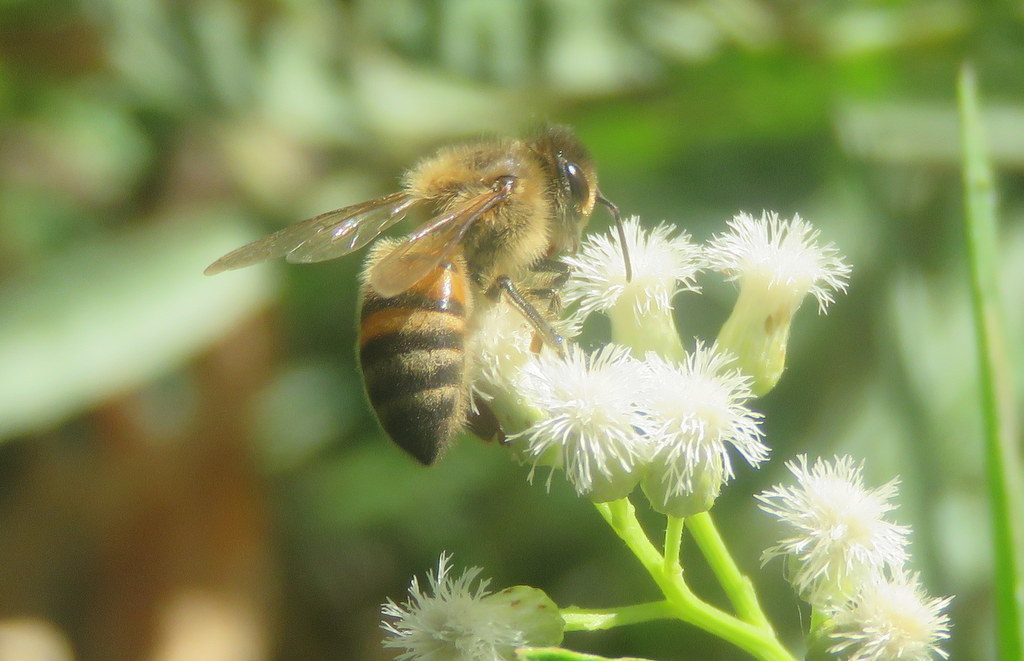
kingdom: Animalia
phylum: Arthropoda
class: Insecta
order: Hymenoptera
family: Apidae
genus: Apis
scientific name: Apis mellifera
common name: Honey bee
